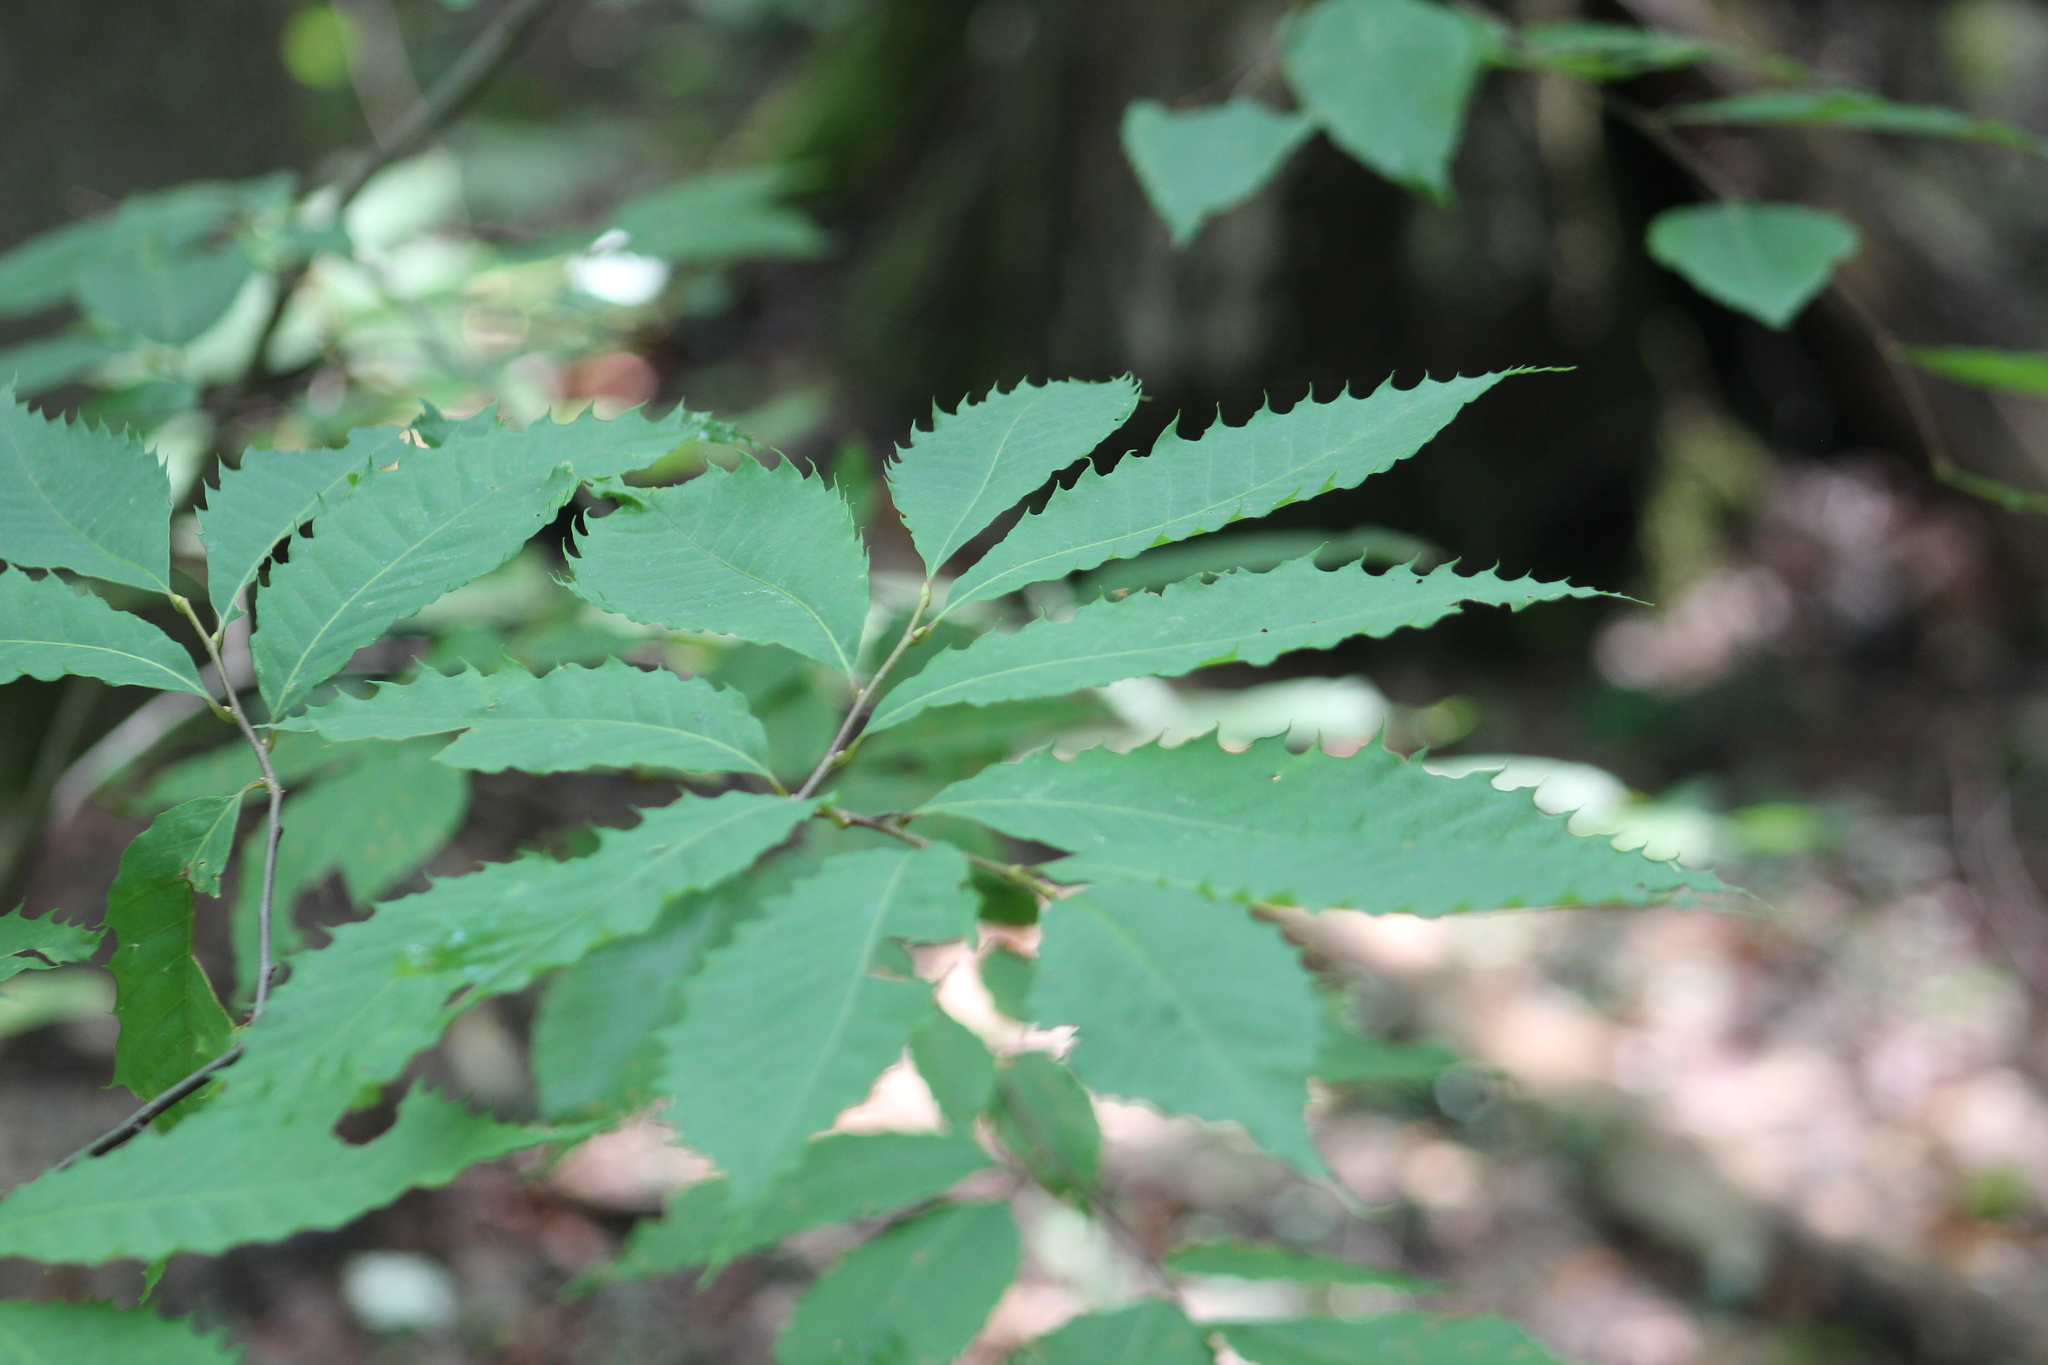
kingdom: Plantae
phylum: Tracheophyta
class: Magnoliopsida
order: Fagales
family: Fagaceae
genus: Castanea
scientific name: Castanea dentata
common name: American chestnut
